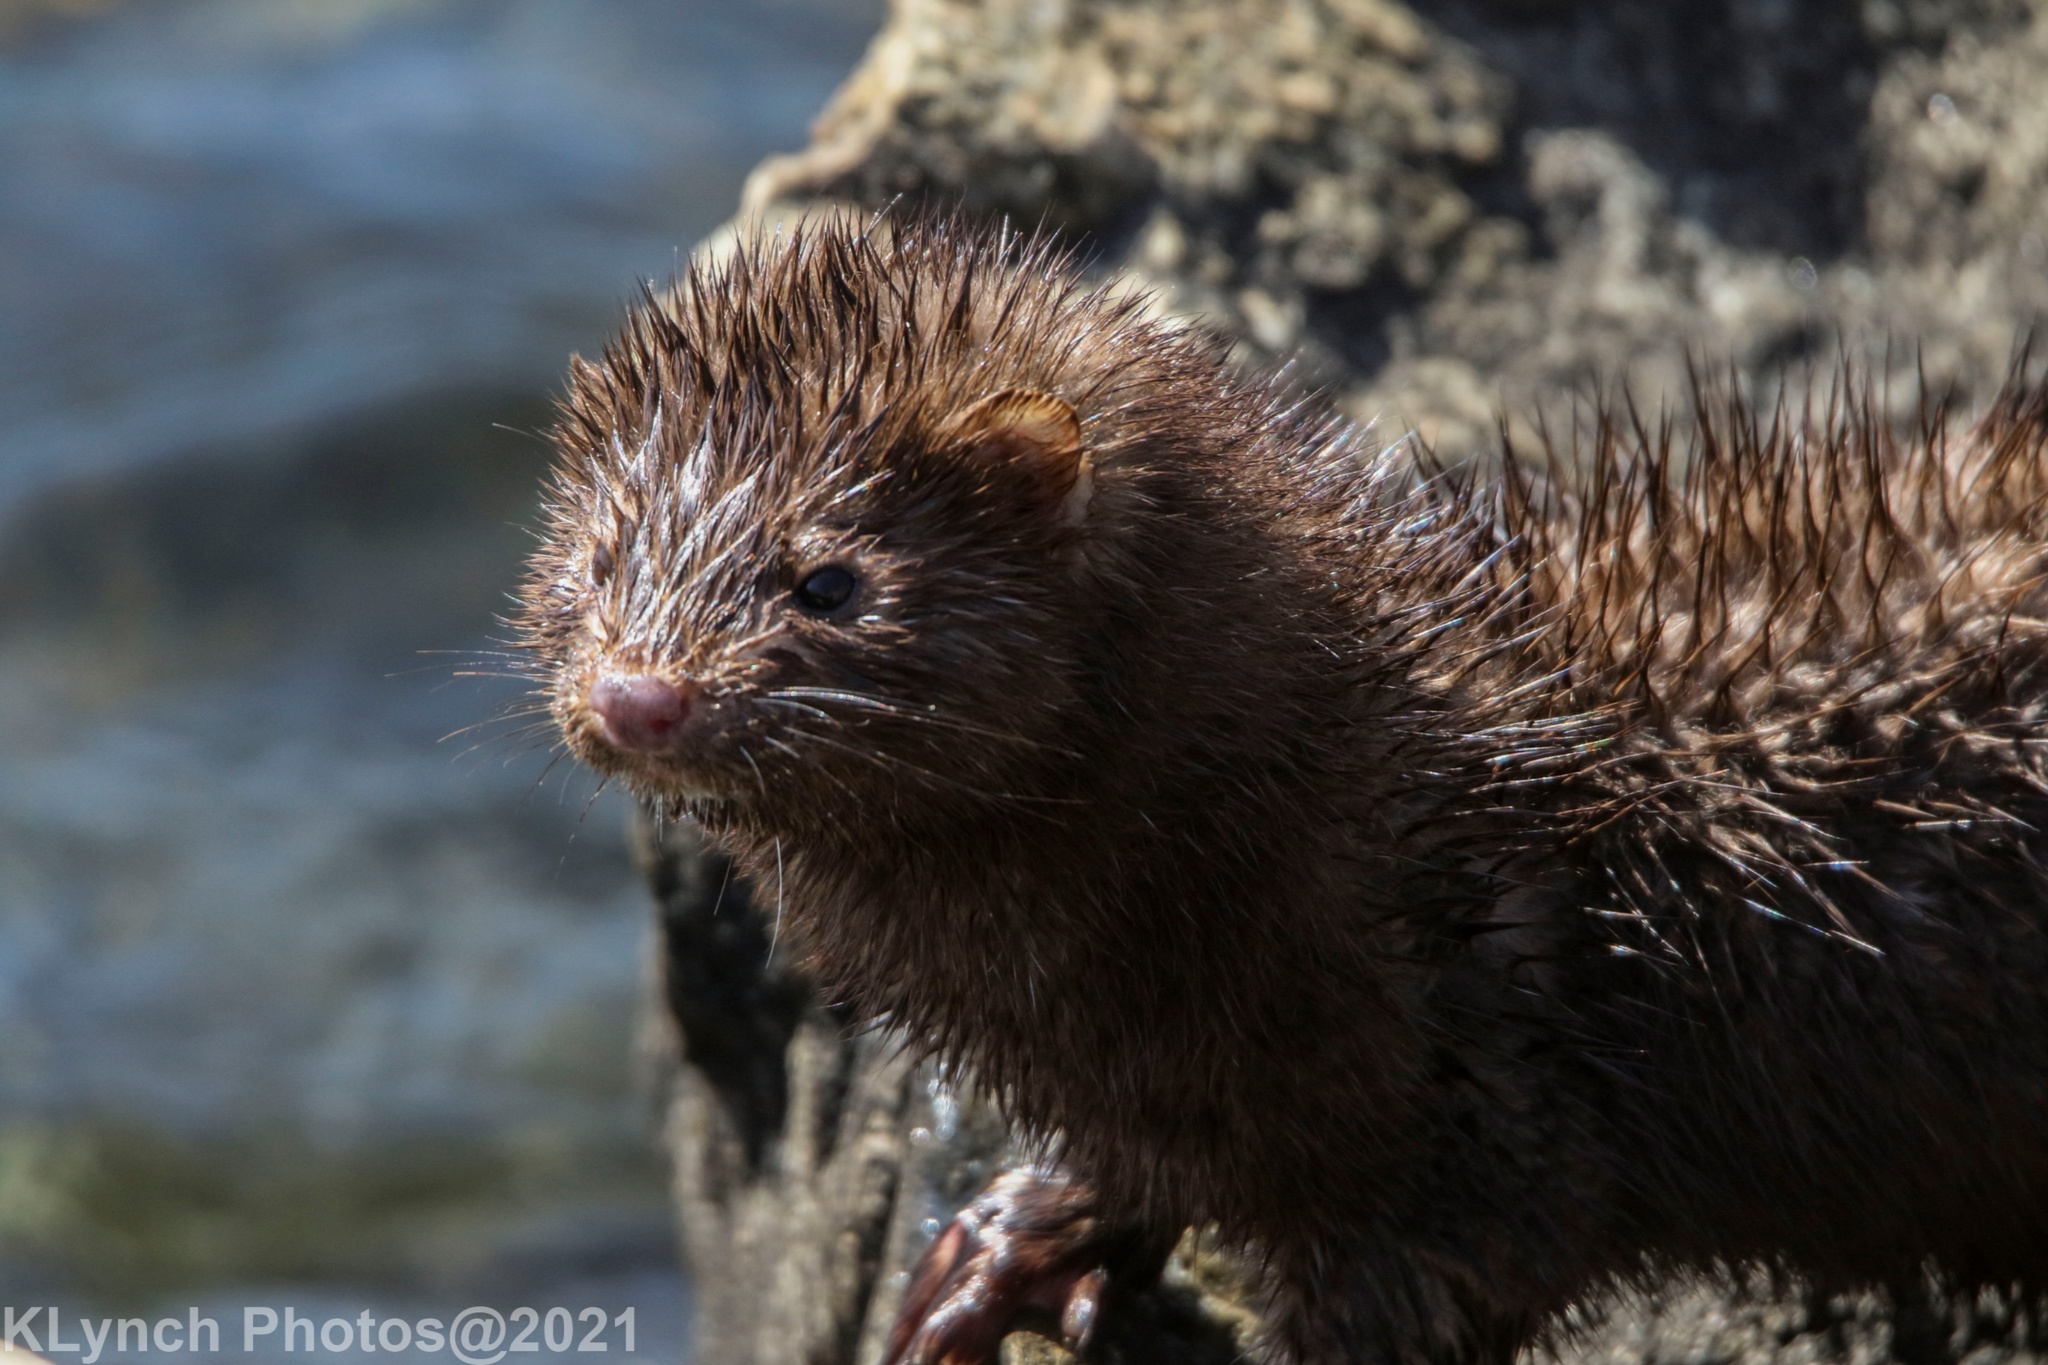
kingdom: Animalia
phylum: Chordata
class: Mammalia
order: Carnivora
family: Mustelidae
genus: Mustela
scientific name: Mustela
